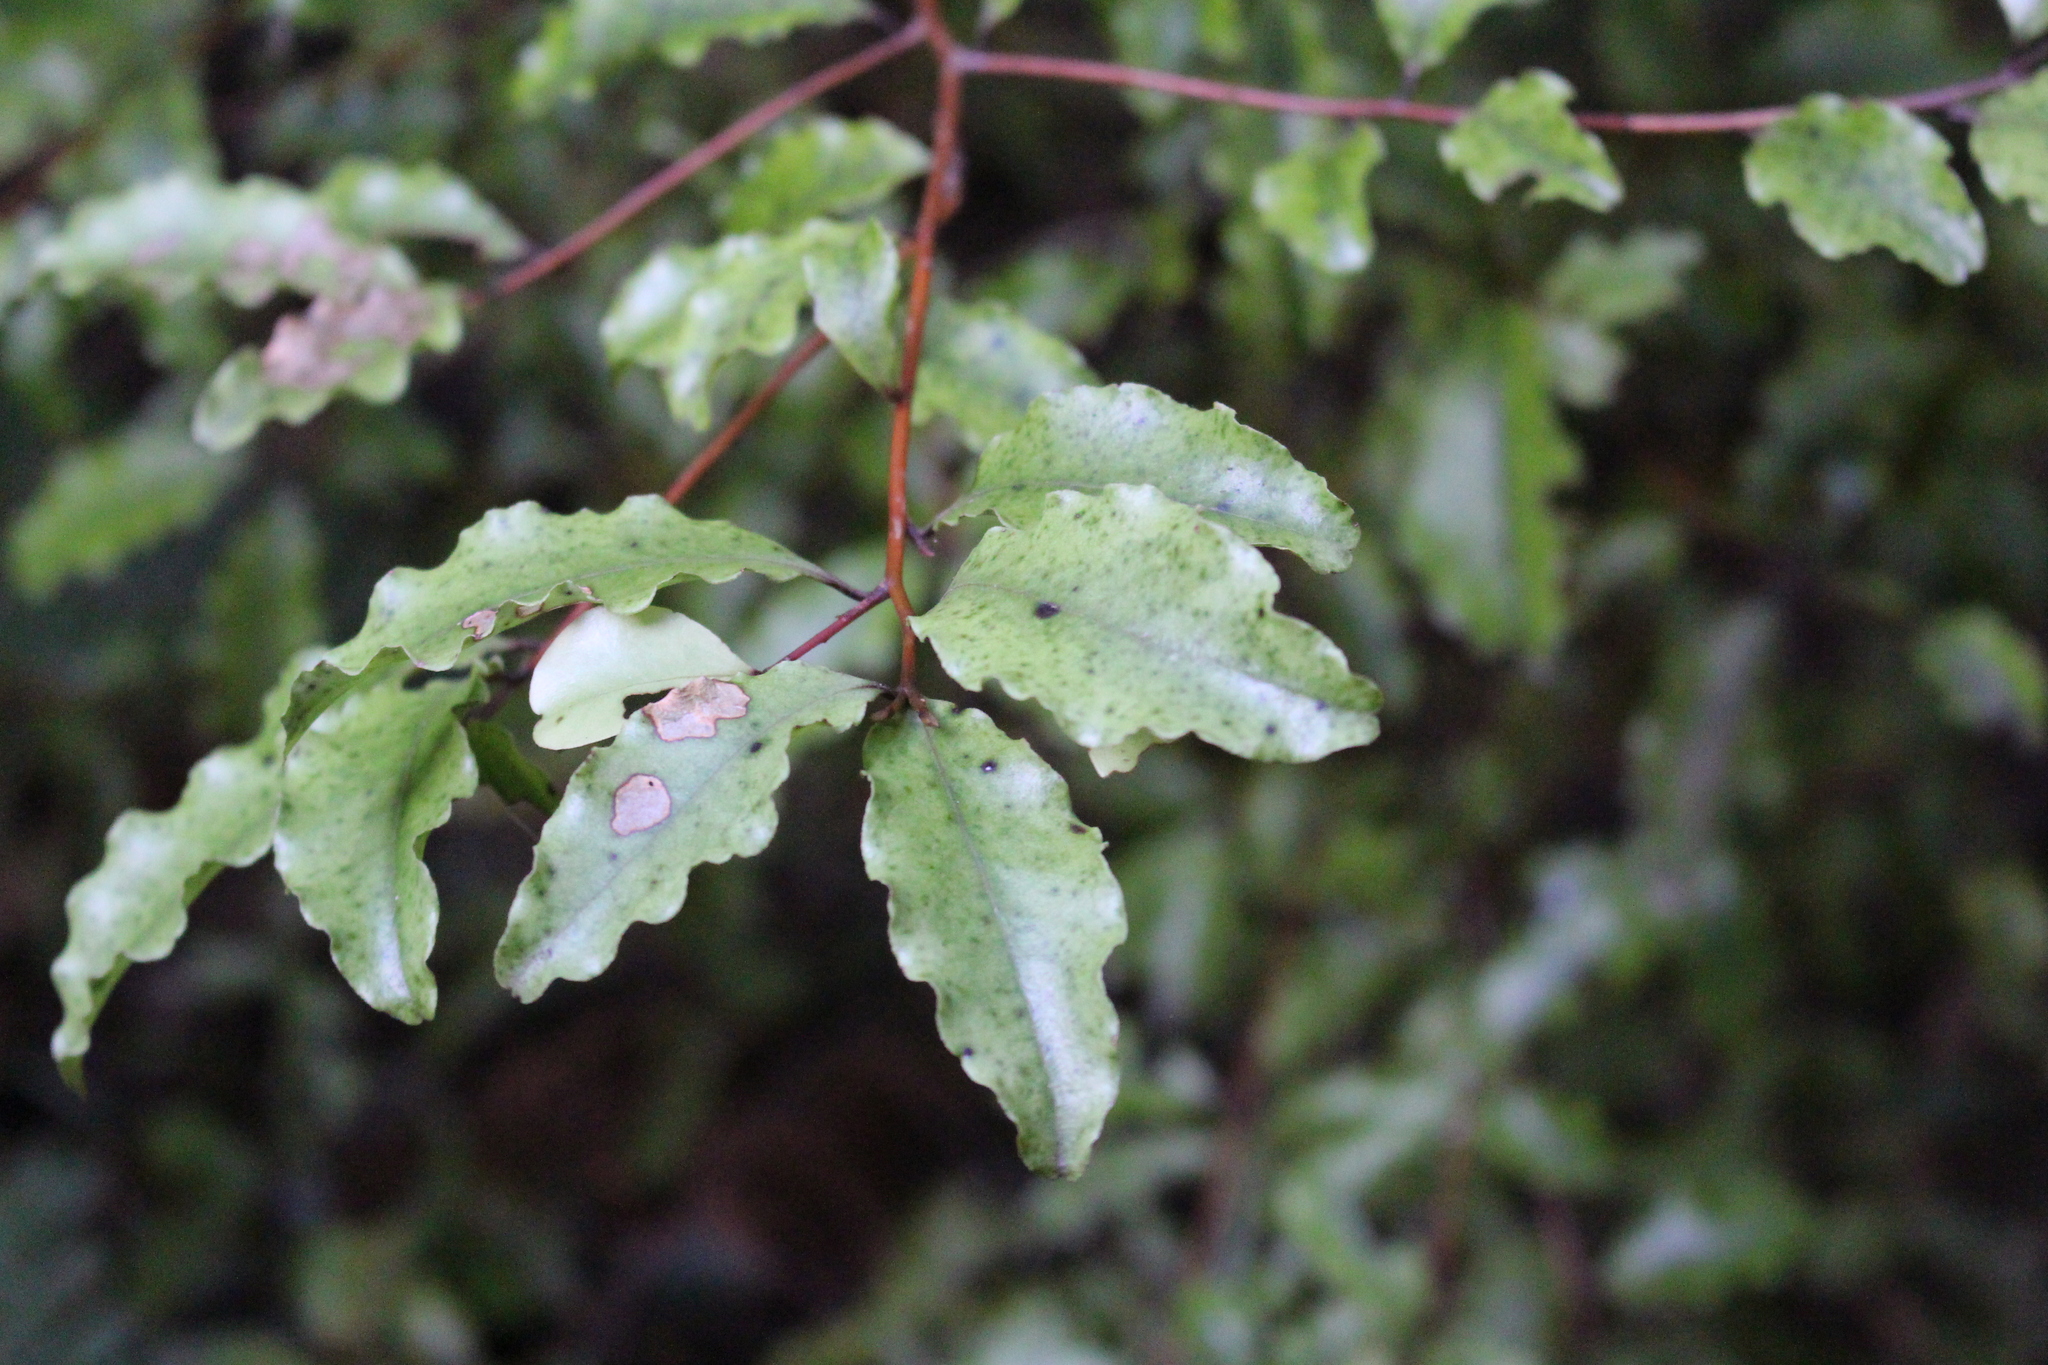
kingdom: Plantae
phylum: Tracheophyta
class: Magnoliopsida
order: Ericales
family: Primulaceae
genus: Myrsine
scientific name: Myrsine australis
